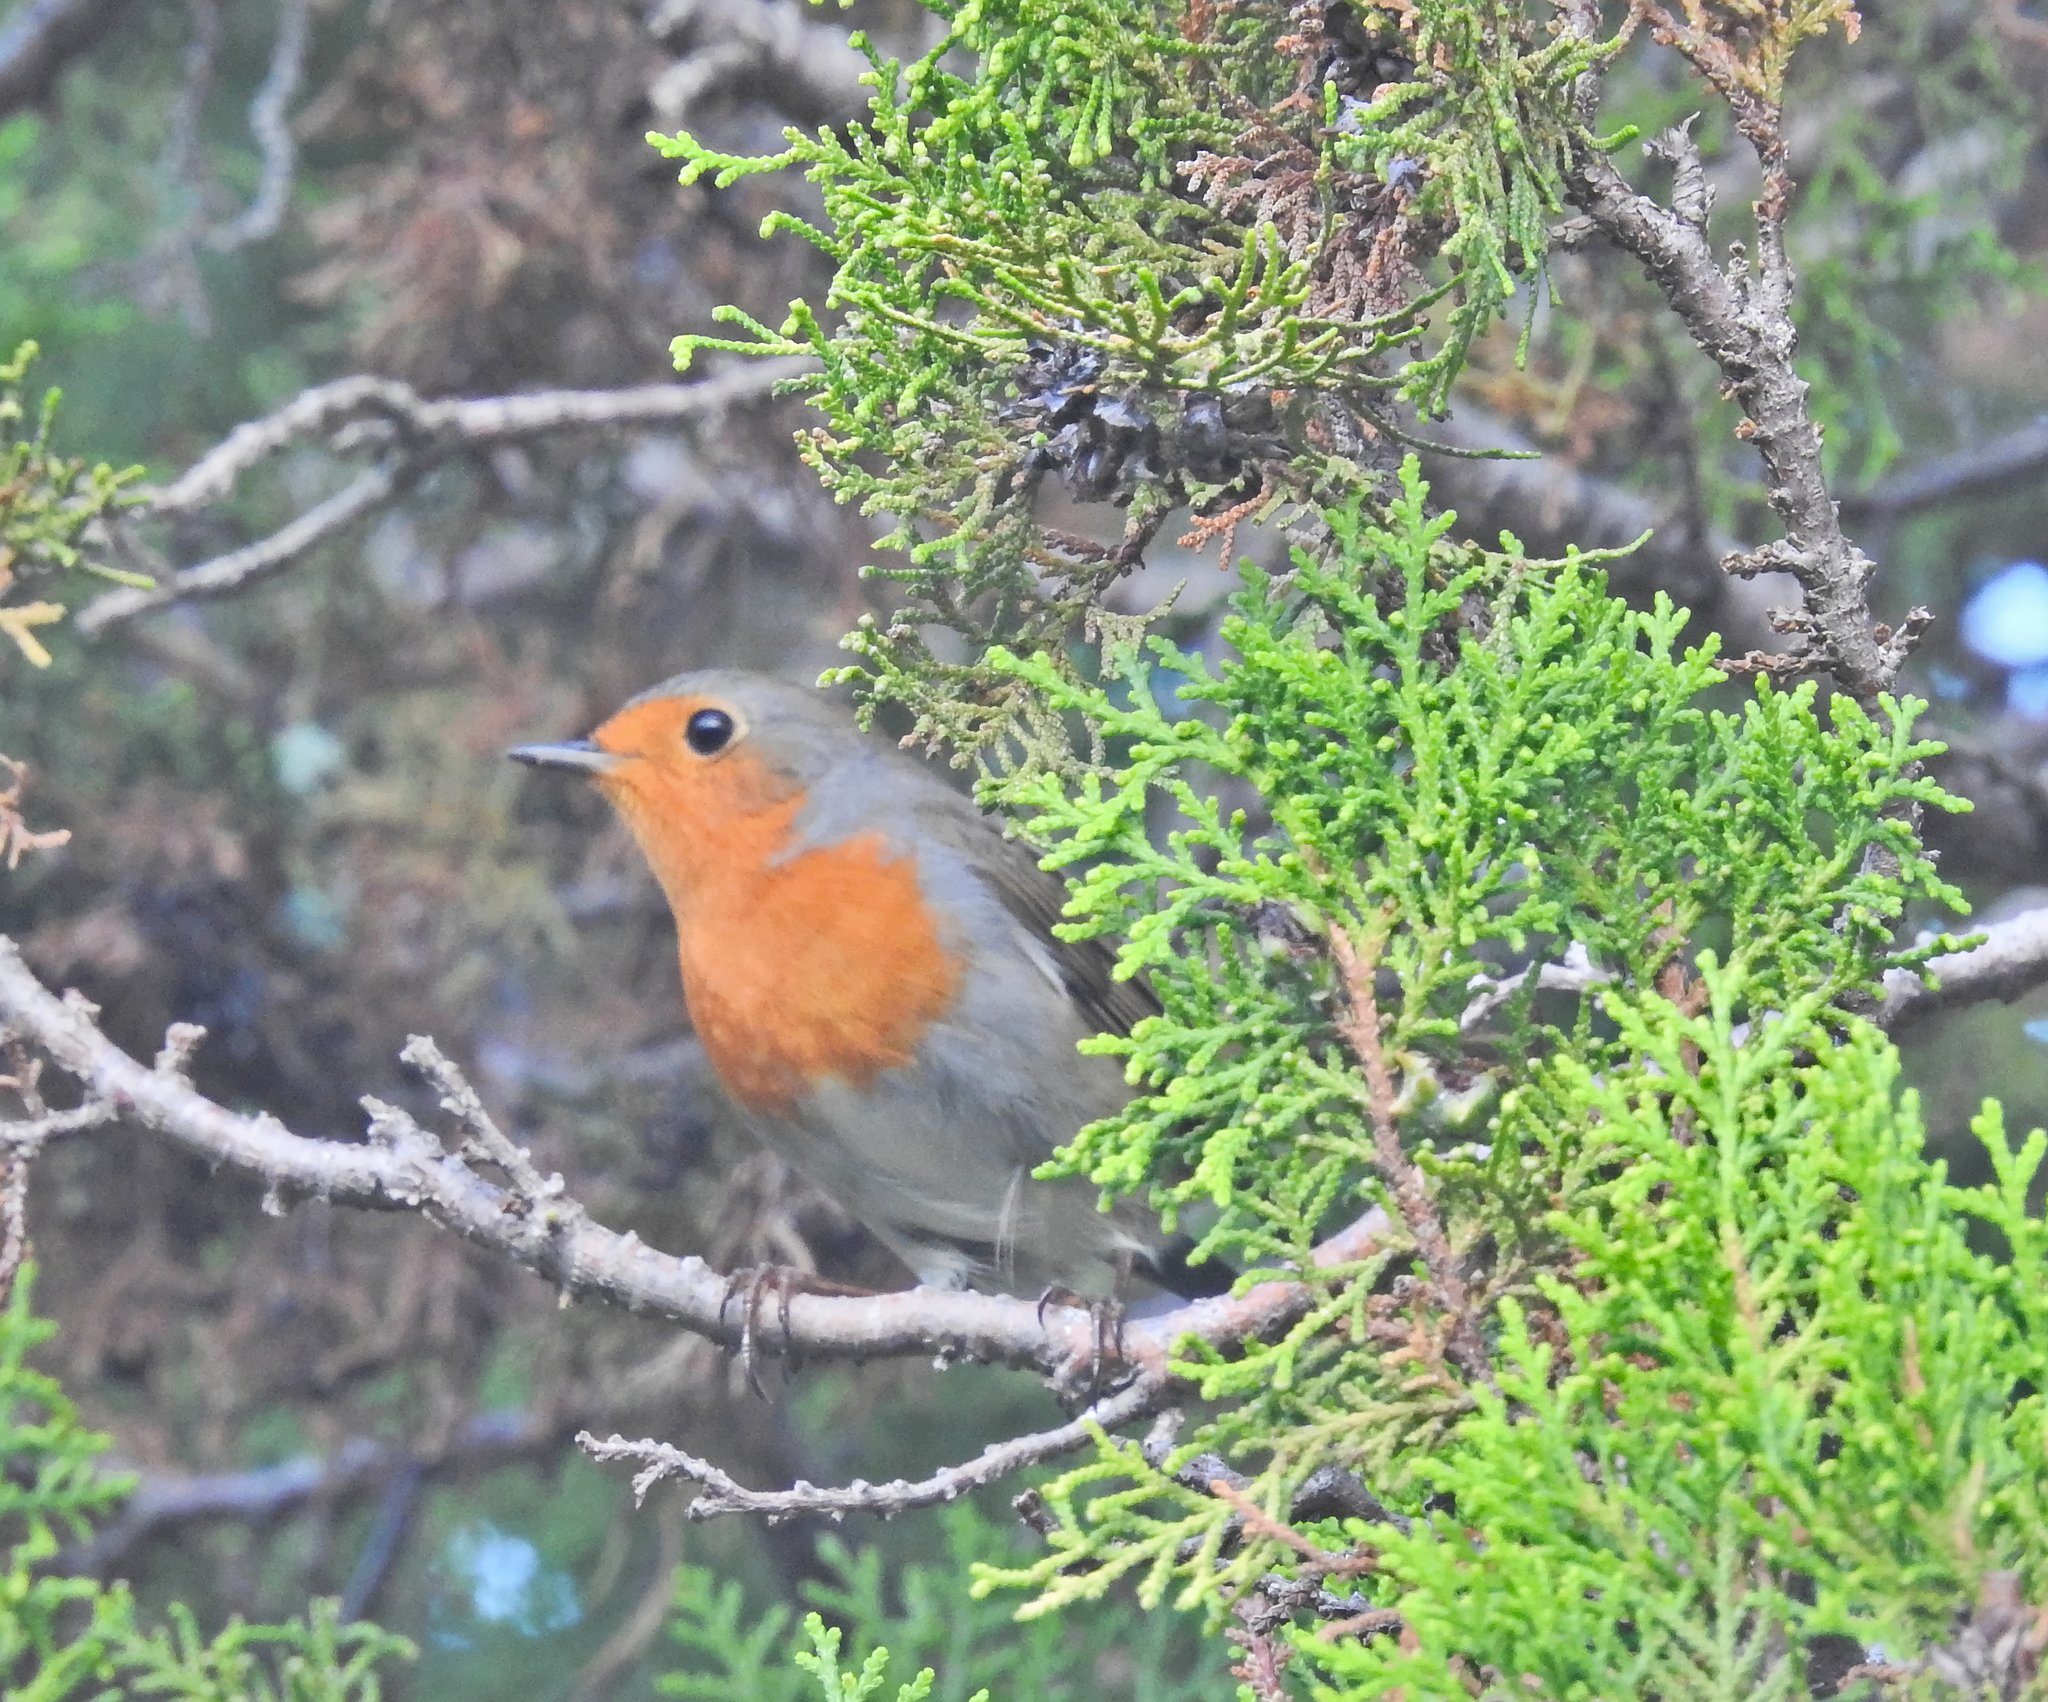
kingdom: Animalia
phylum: Chordata
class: Aves
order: Passeriformes
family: Muscicapidae
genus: Erithacus
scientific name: Erithacus rubecula
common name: European robin
